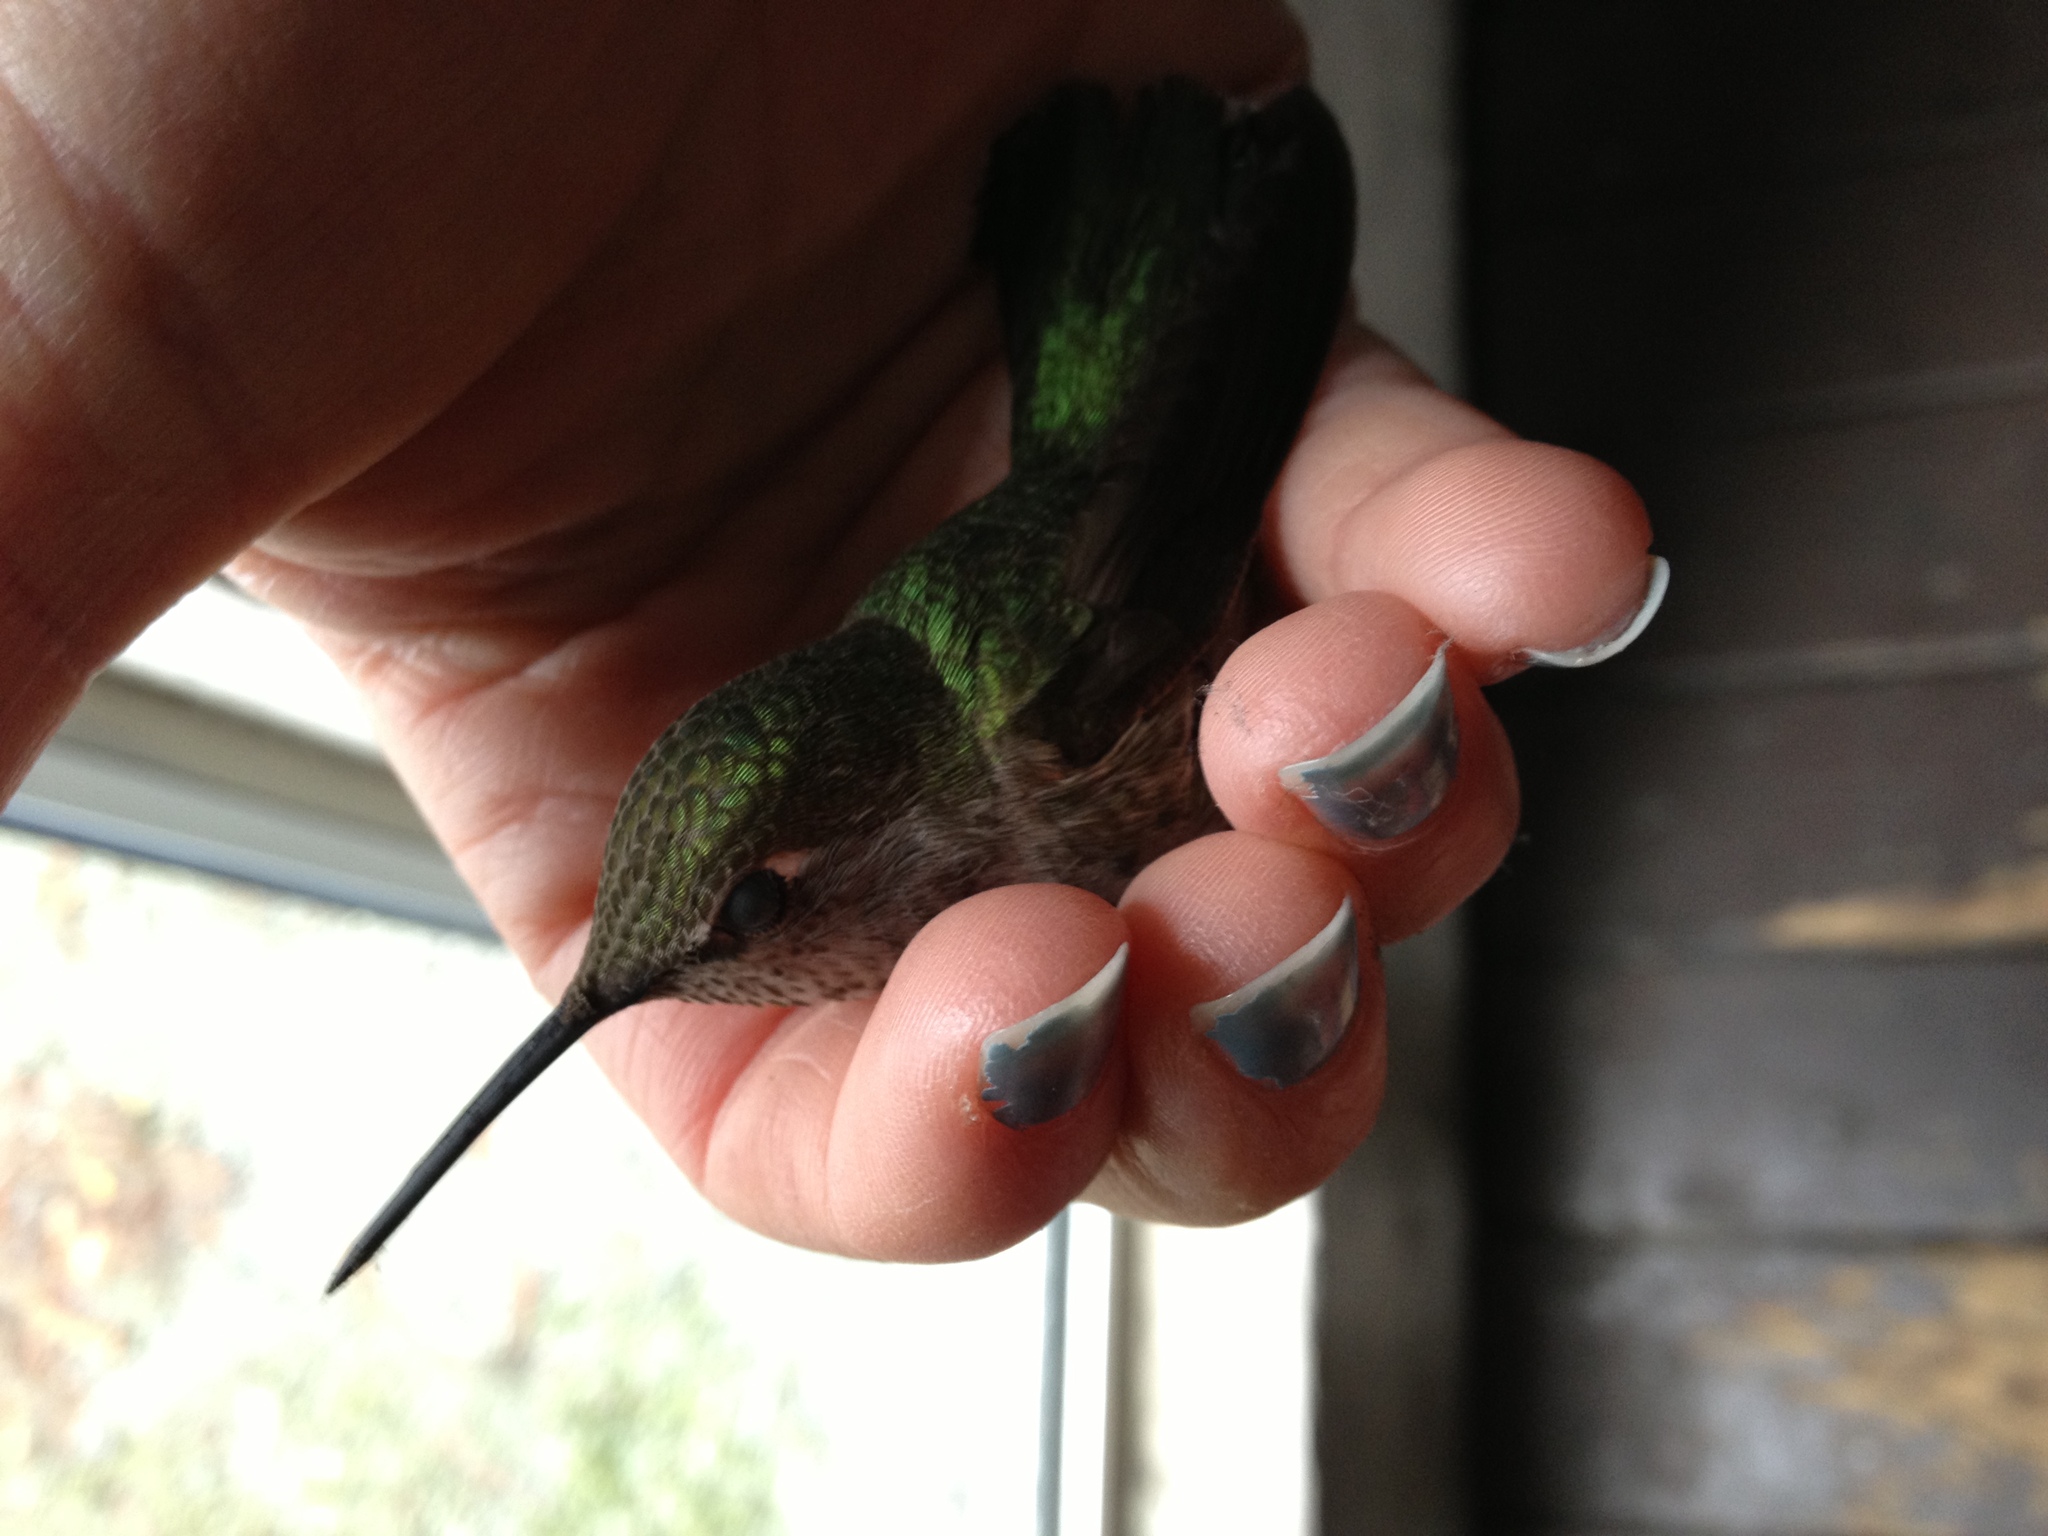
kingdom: Animalia
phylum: Chordata
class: Aves
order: Apodiformes
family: Trochilidae
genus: Calypte
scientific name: Calypte anna
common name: Anna's hummingbird
